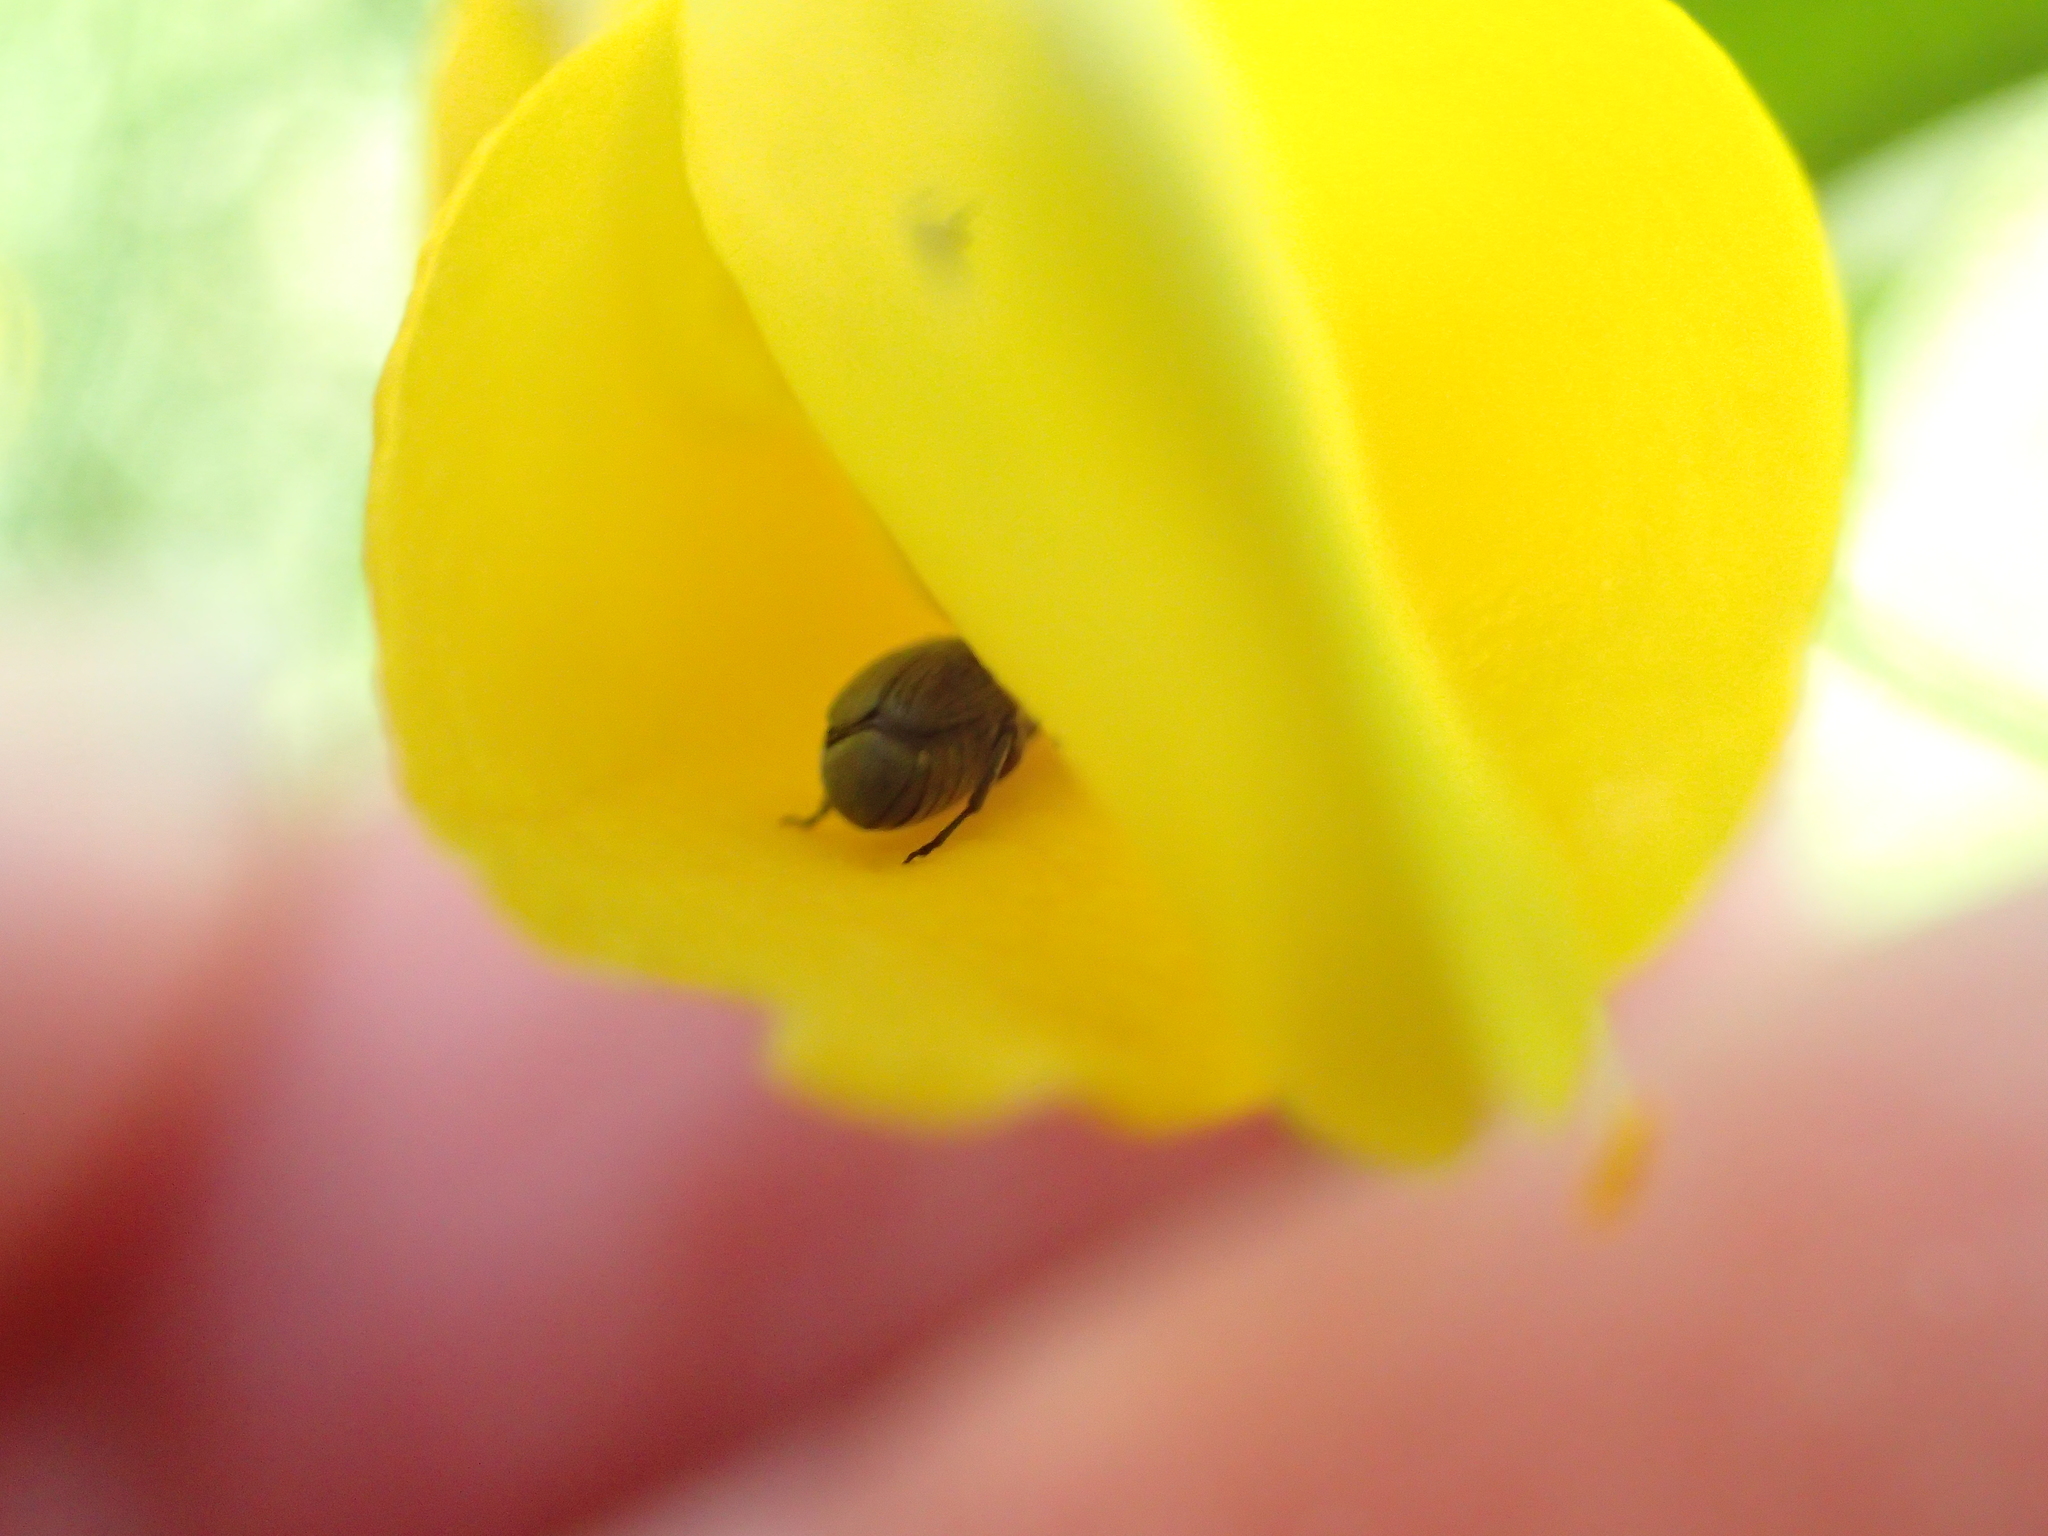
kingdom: Animalia
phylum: Arthropoda
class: Insecta
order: Coleoptera
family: Chrysomelidae
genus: Bruchidius
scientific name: Bruchidius villosus
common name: Scotch broom bruchid
